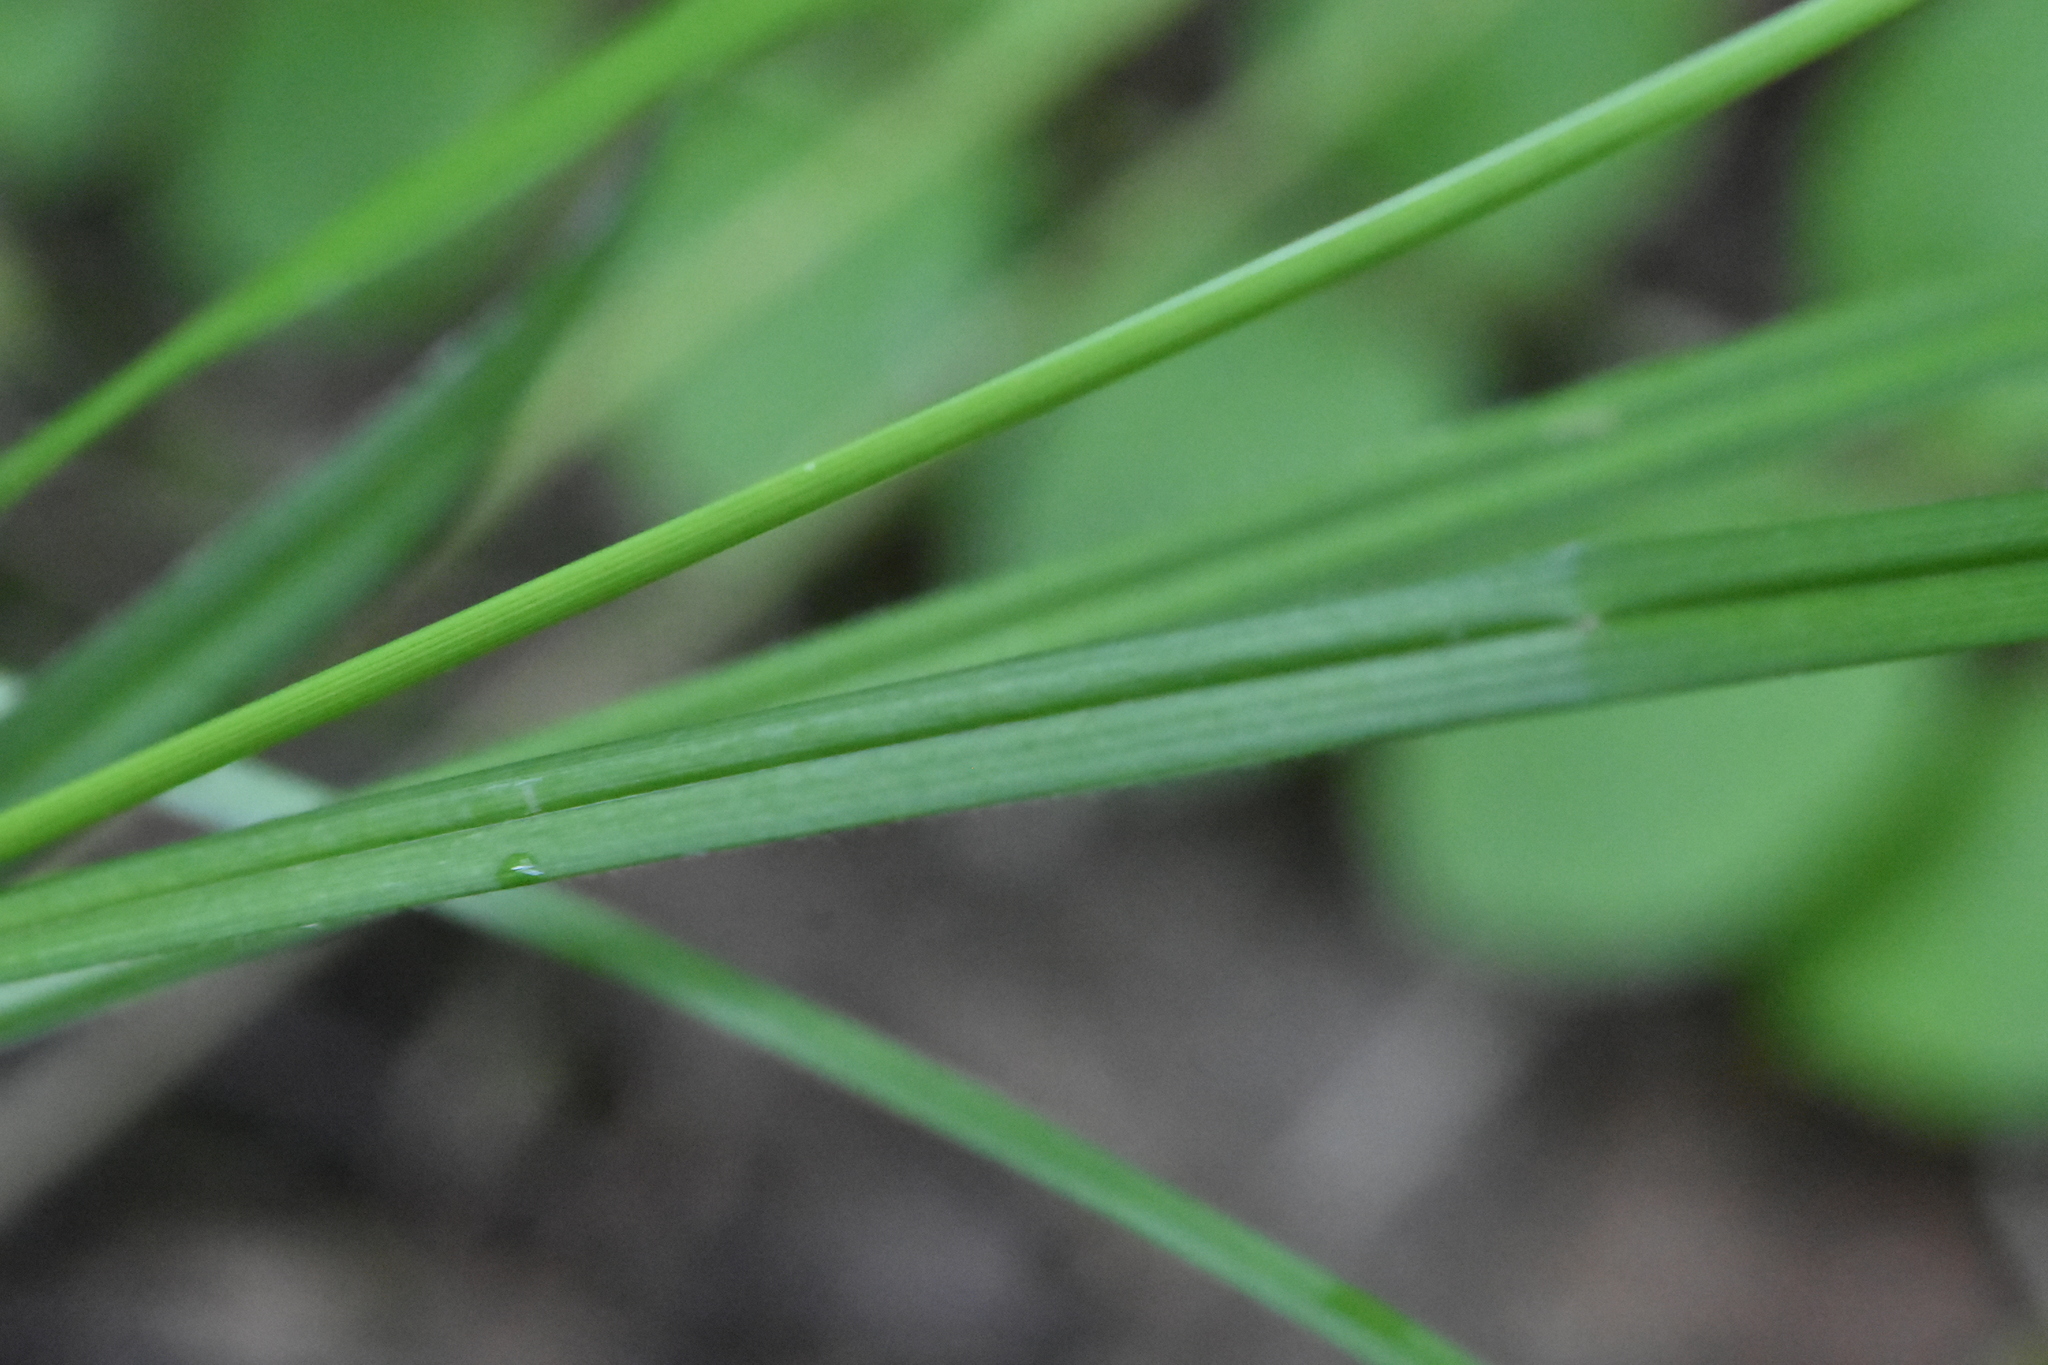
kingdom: Plantae
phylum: Tracheophyta
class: Liliopsida
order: Poales
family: Cyperaceae
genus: Carex
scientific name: Carex pallescens
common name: Pale sedge
